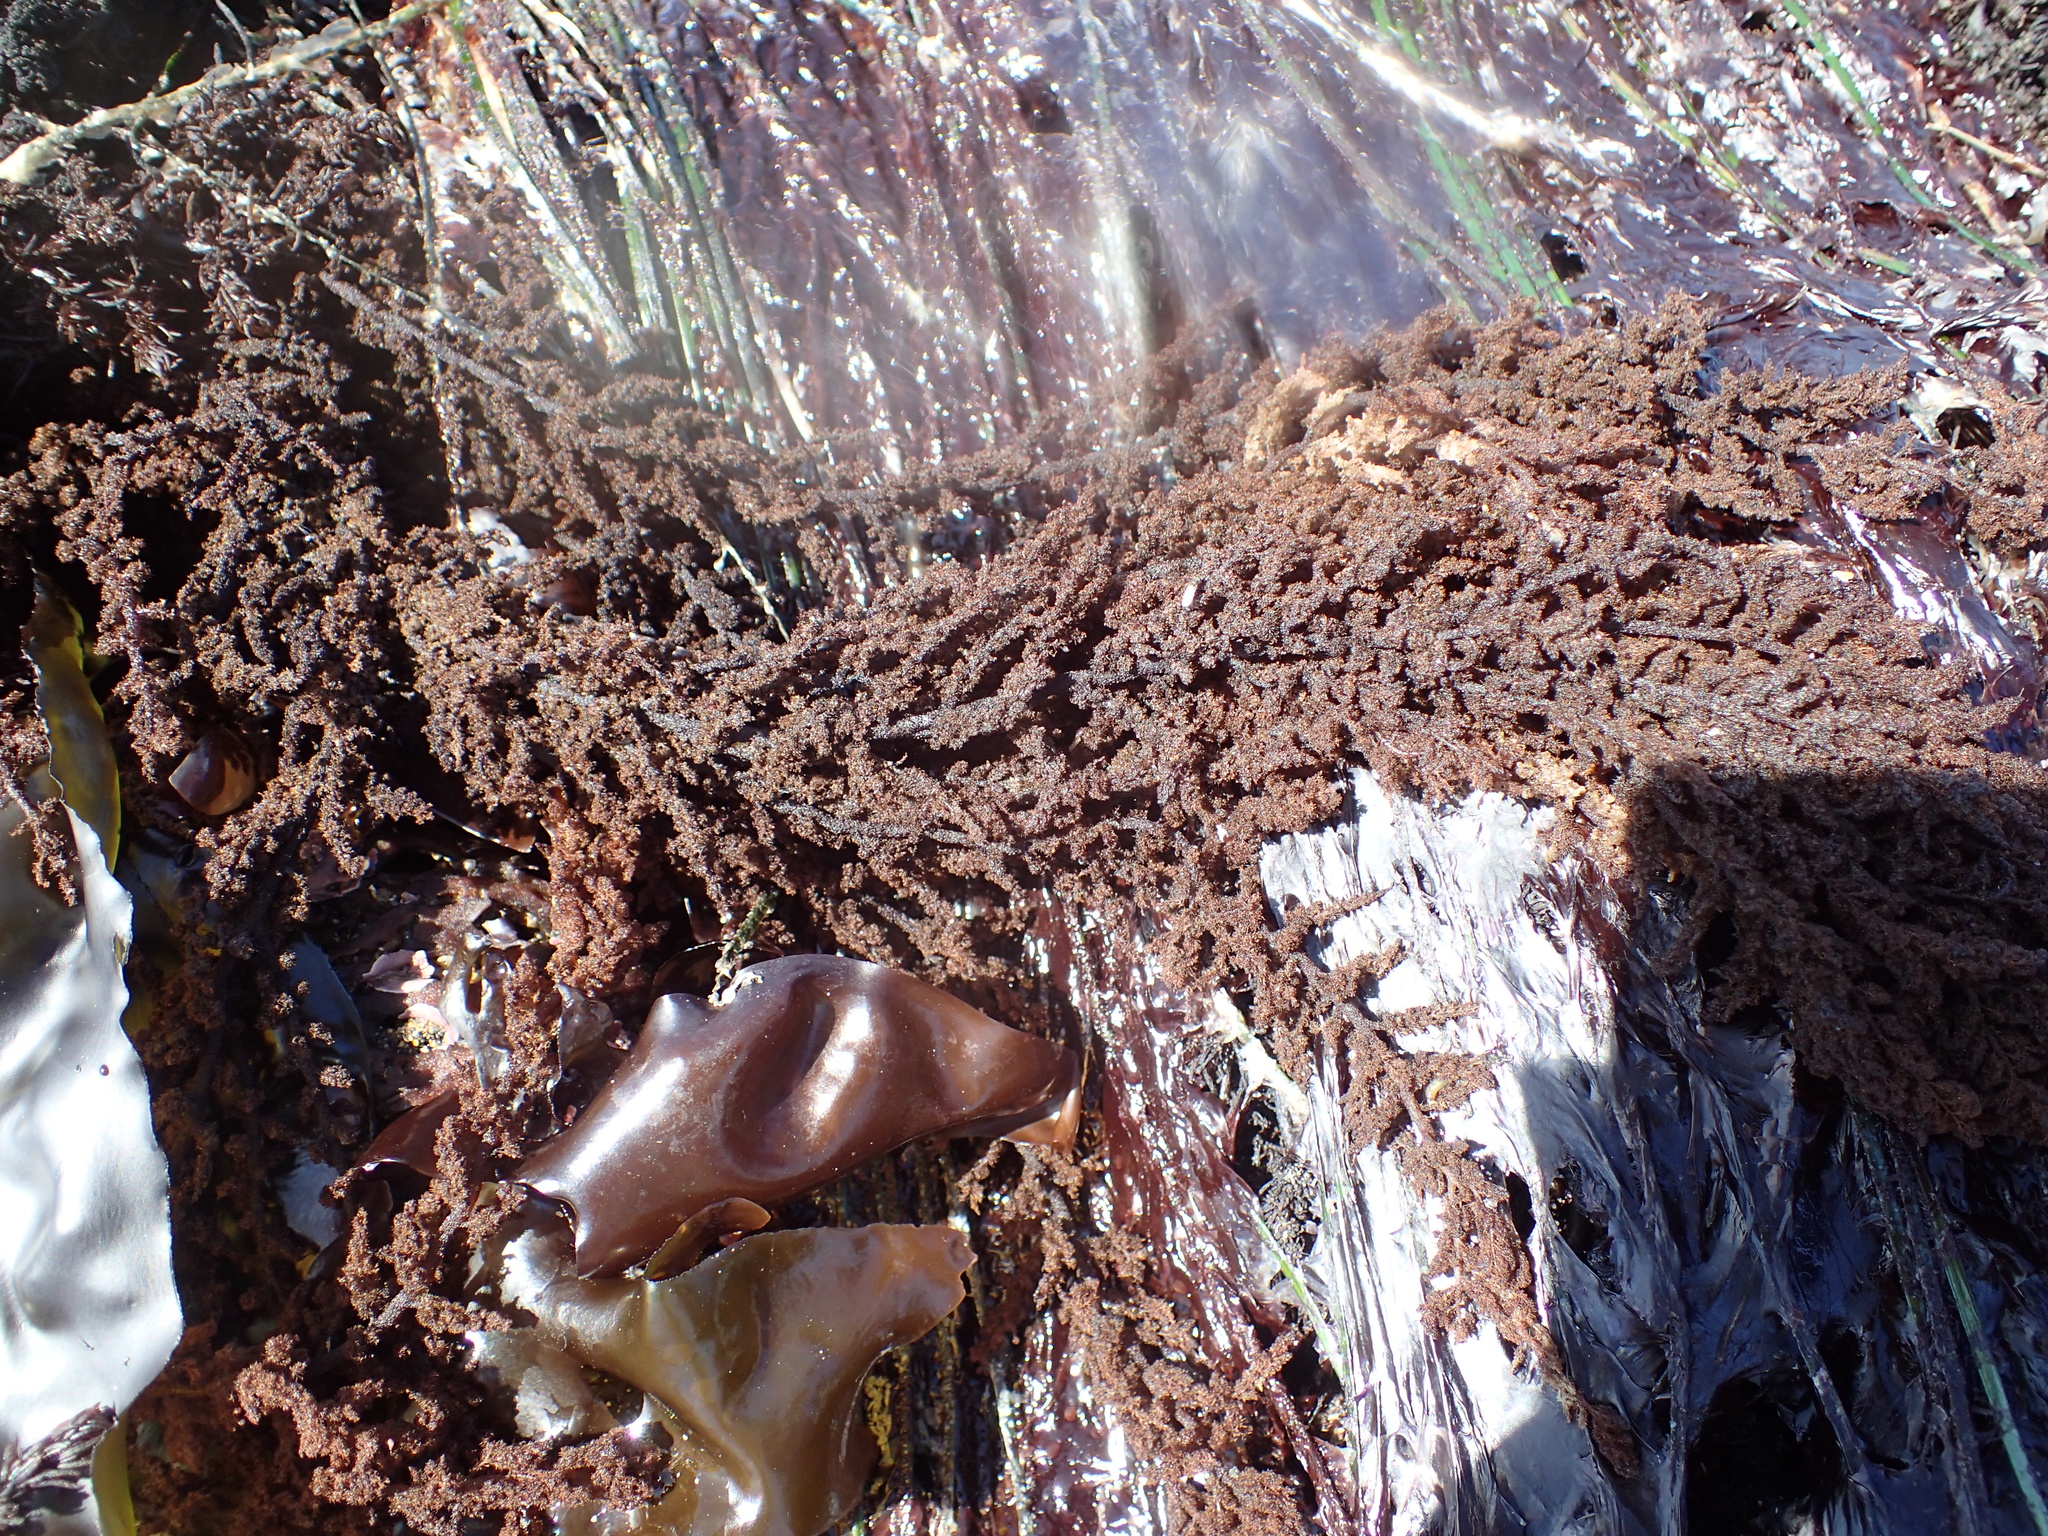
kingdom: Plantae
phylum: Rhodophyta
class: Florideophyceae
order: Ceramiales
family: Callithamniaceae
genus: Callithamnion
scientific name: Callithamnion pikeanum
